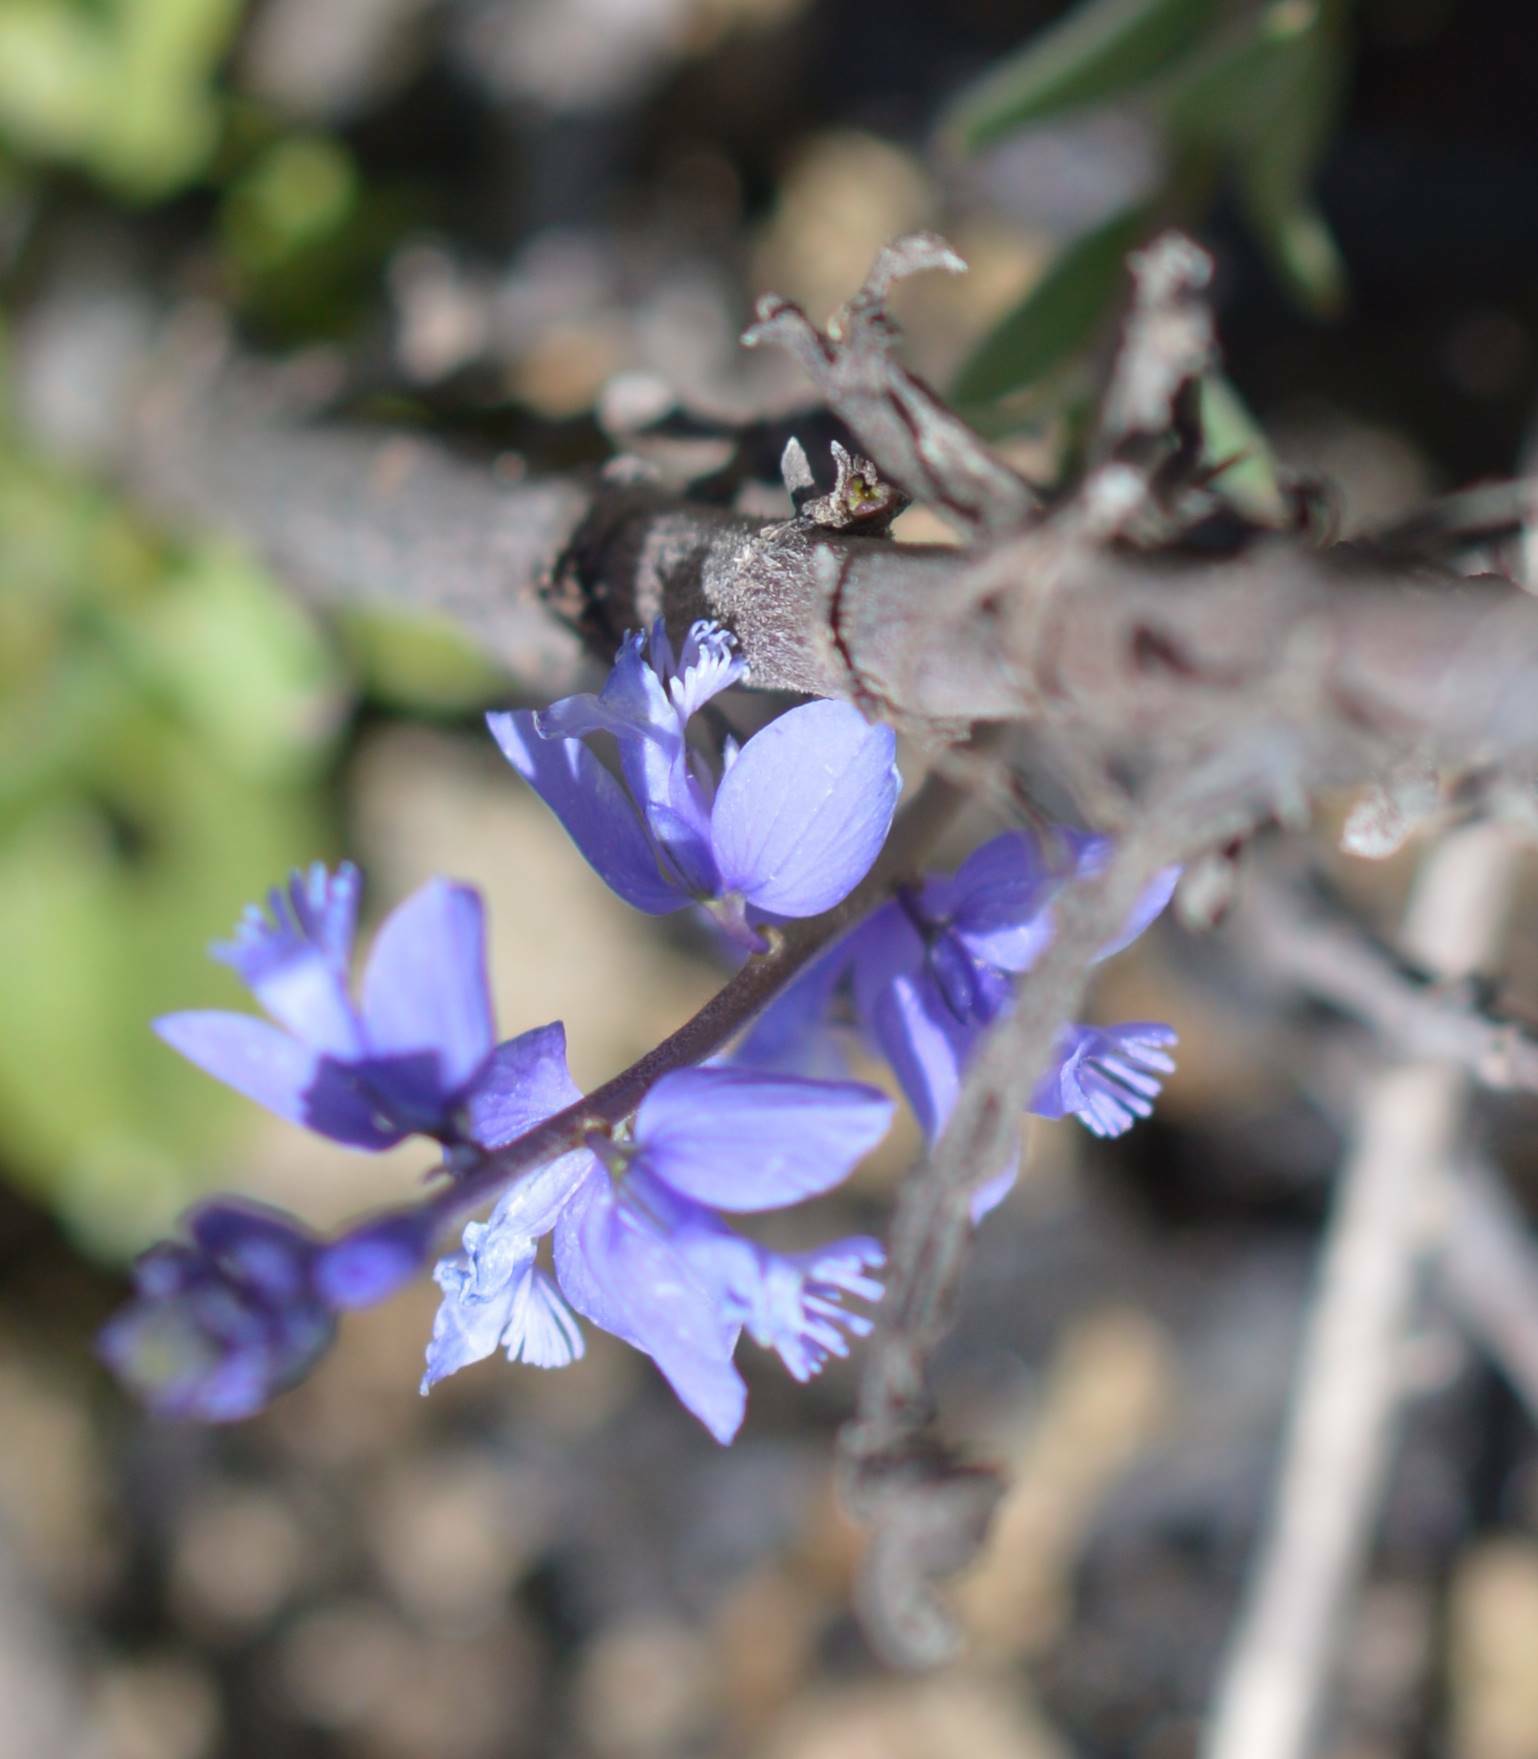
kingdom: Plantae
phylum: Tracheophyta
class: Magnoliopsida
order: Fabales
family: Polygalaceae
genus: Polygala
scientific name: Polygala nicaeensis
